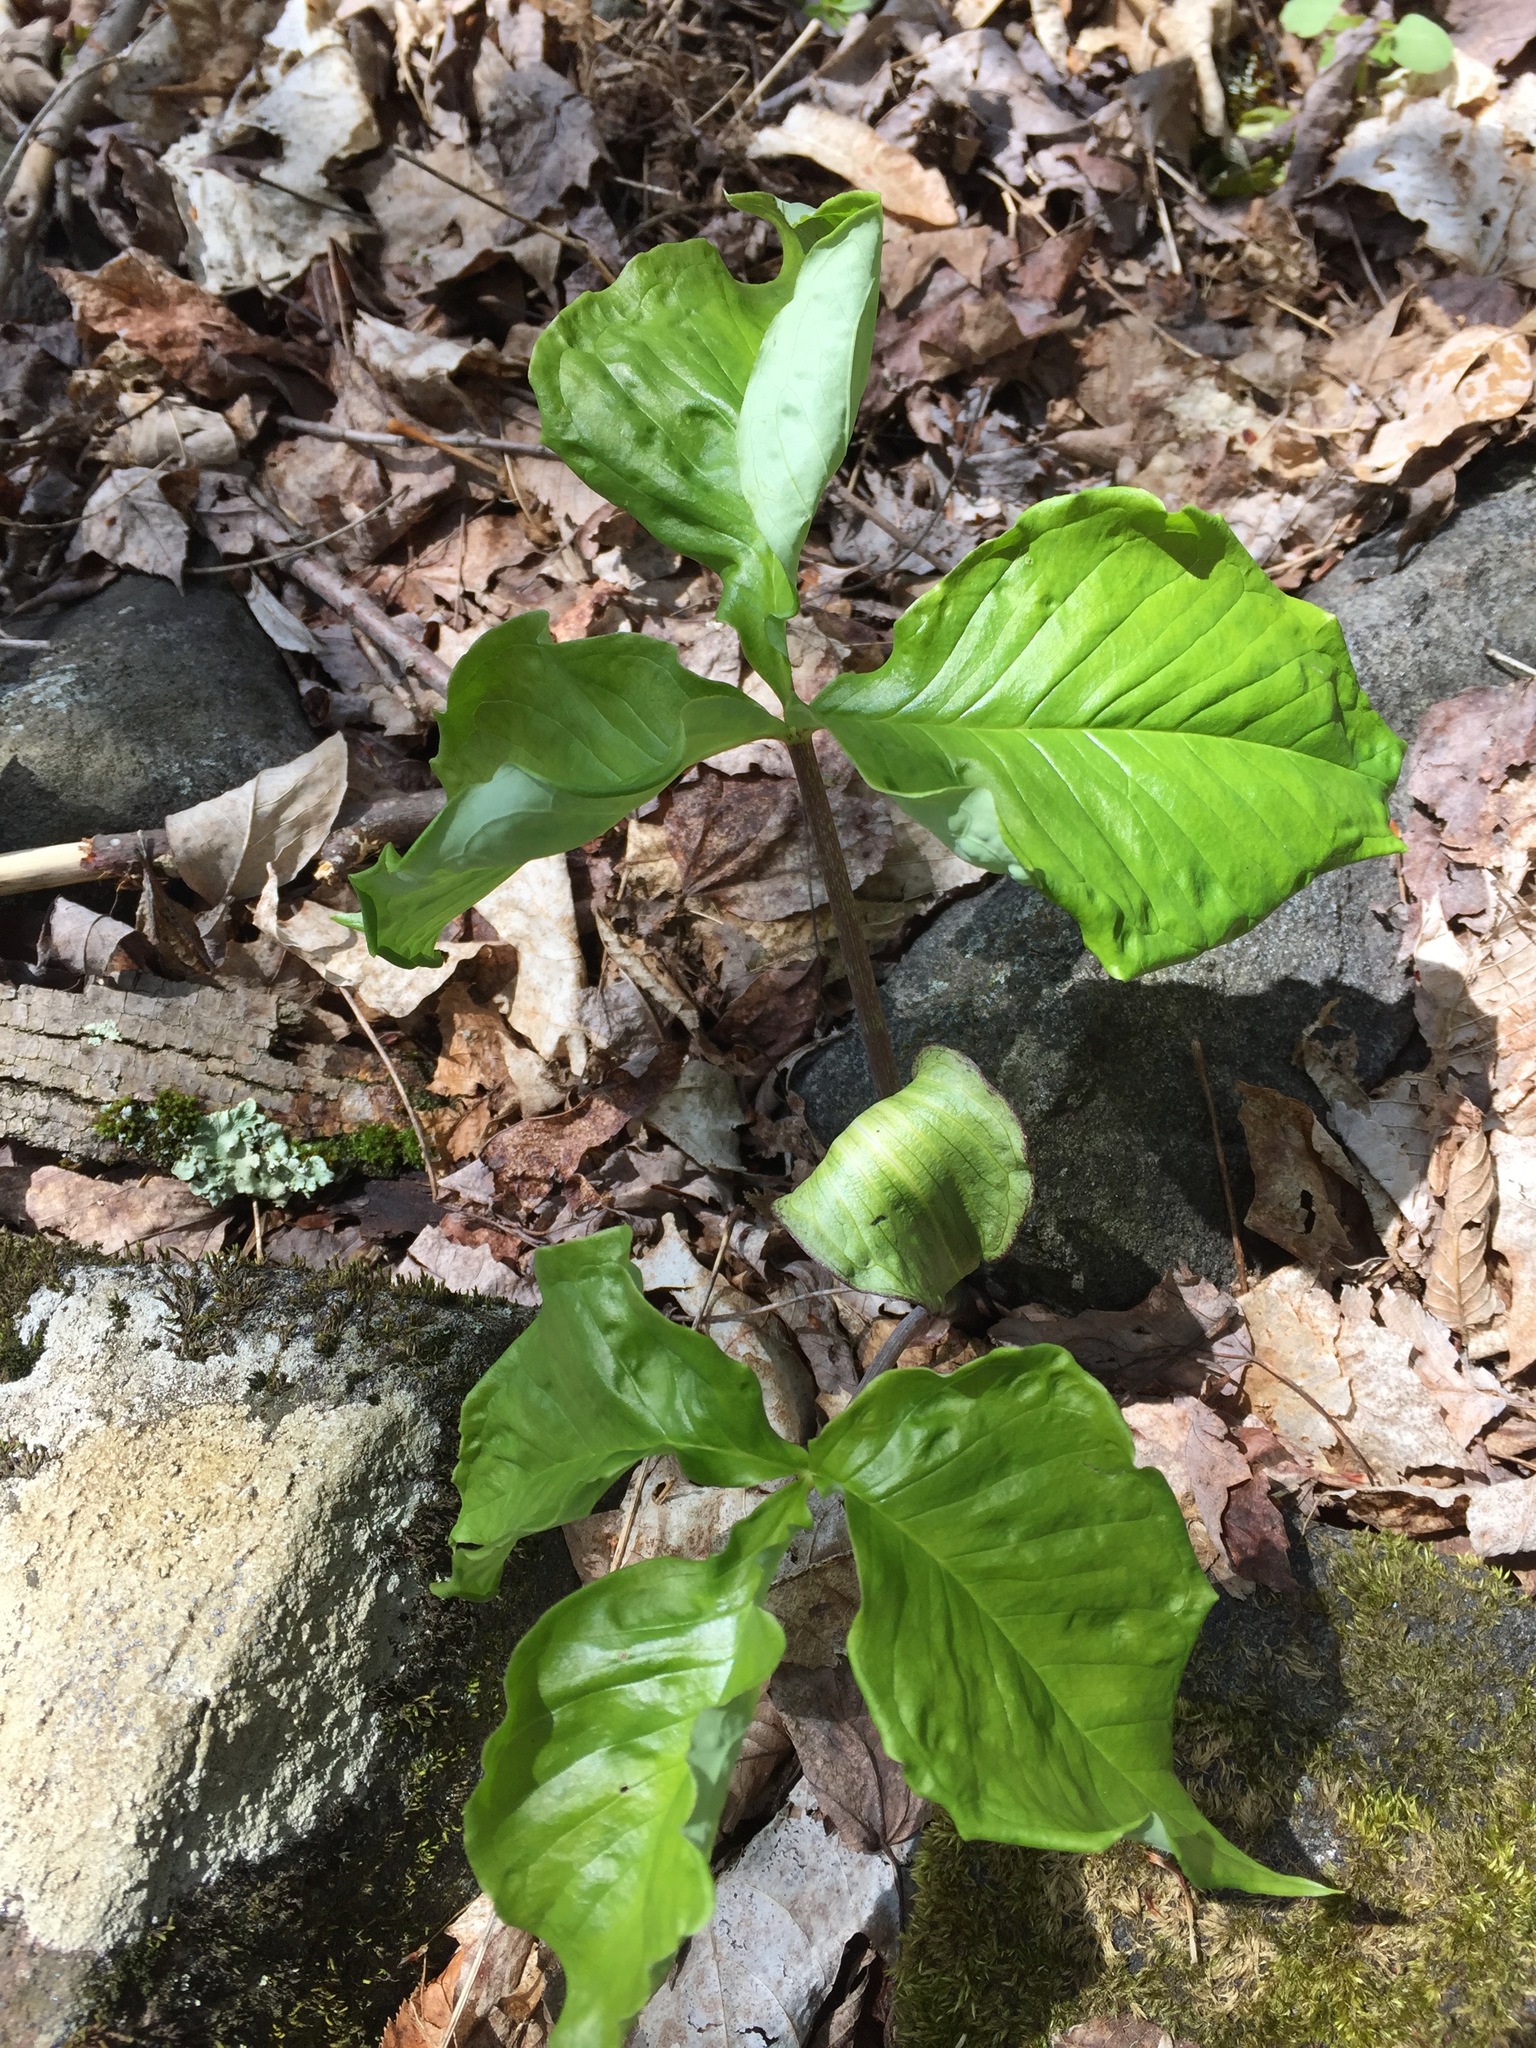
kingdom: Plantae
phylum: Tracheophyta
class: Liliopsida
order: Alismatales
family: Araceae
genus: Arisaema
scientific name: Arisaema triphyllum
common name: Jack-in-the-pulpit
